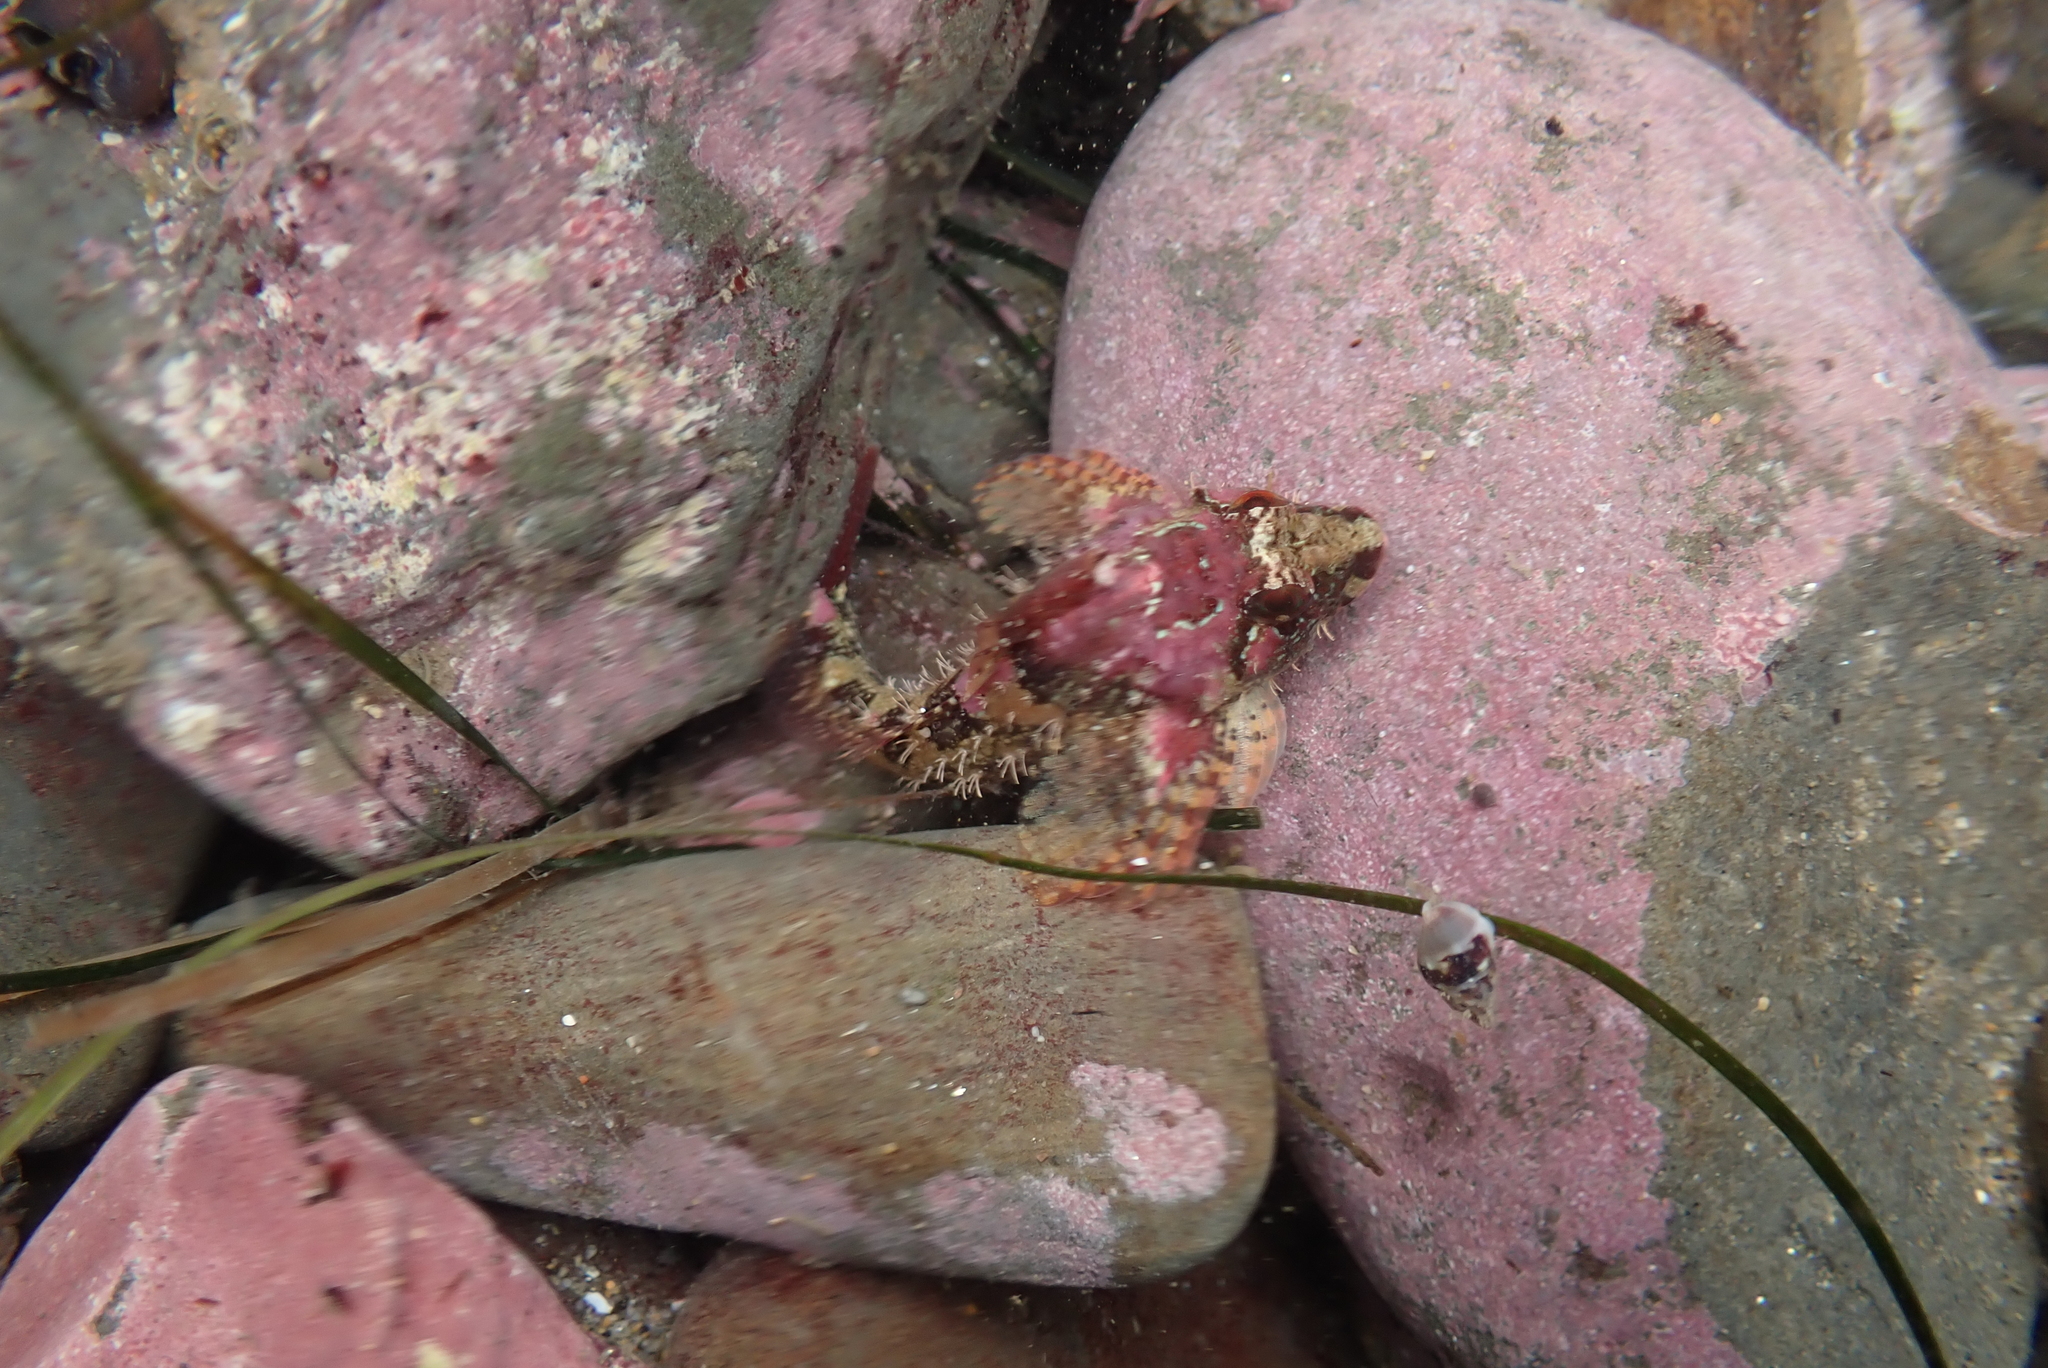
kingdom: Animalia
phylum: Chordata
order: Scorpaeniformes
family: Cottidae
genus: Oligocottus
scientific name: Oligocottus rubellio
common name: Rosy sculpin
